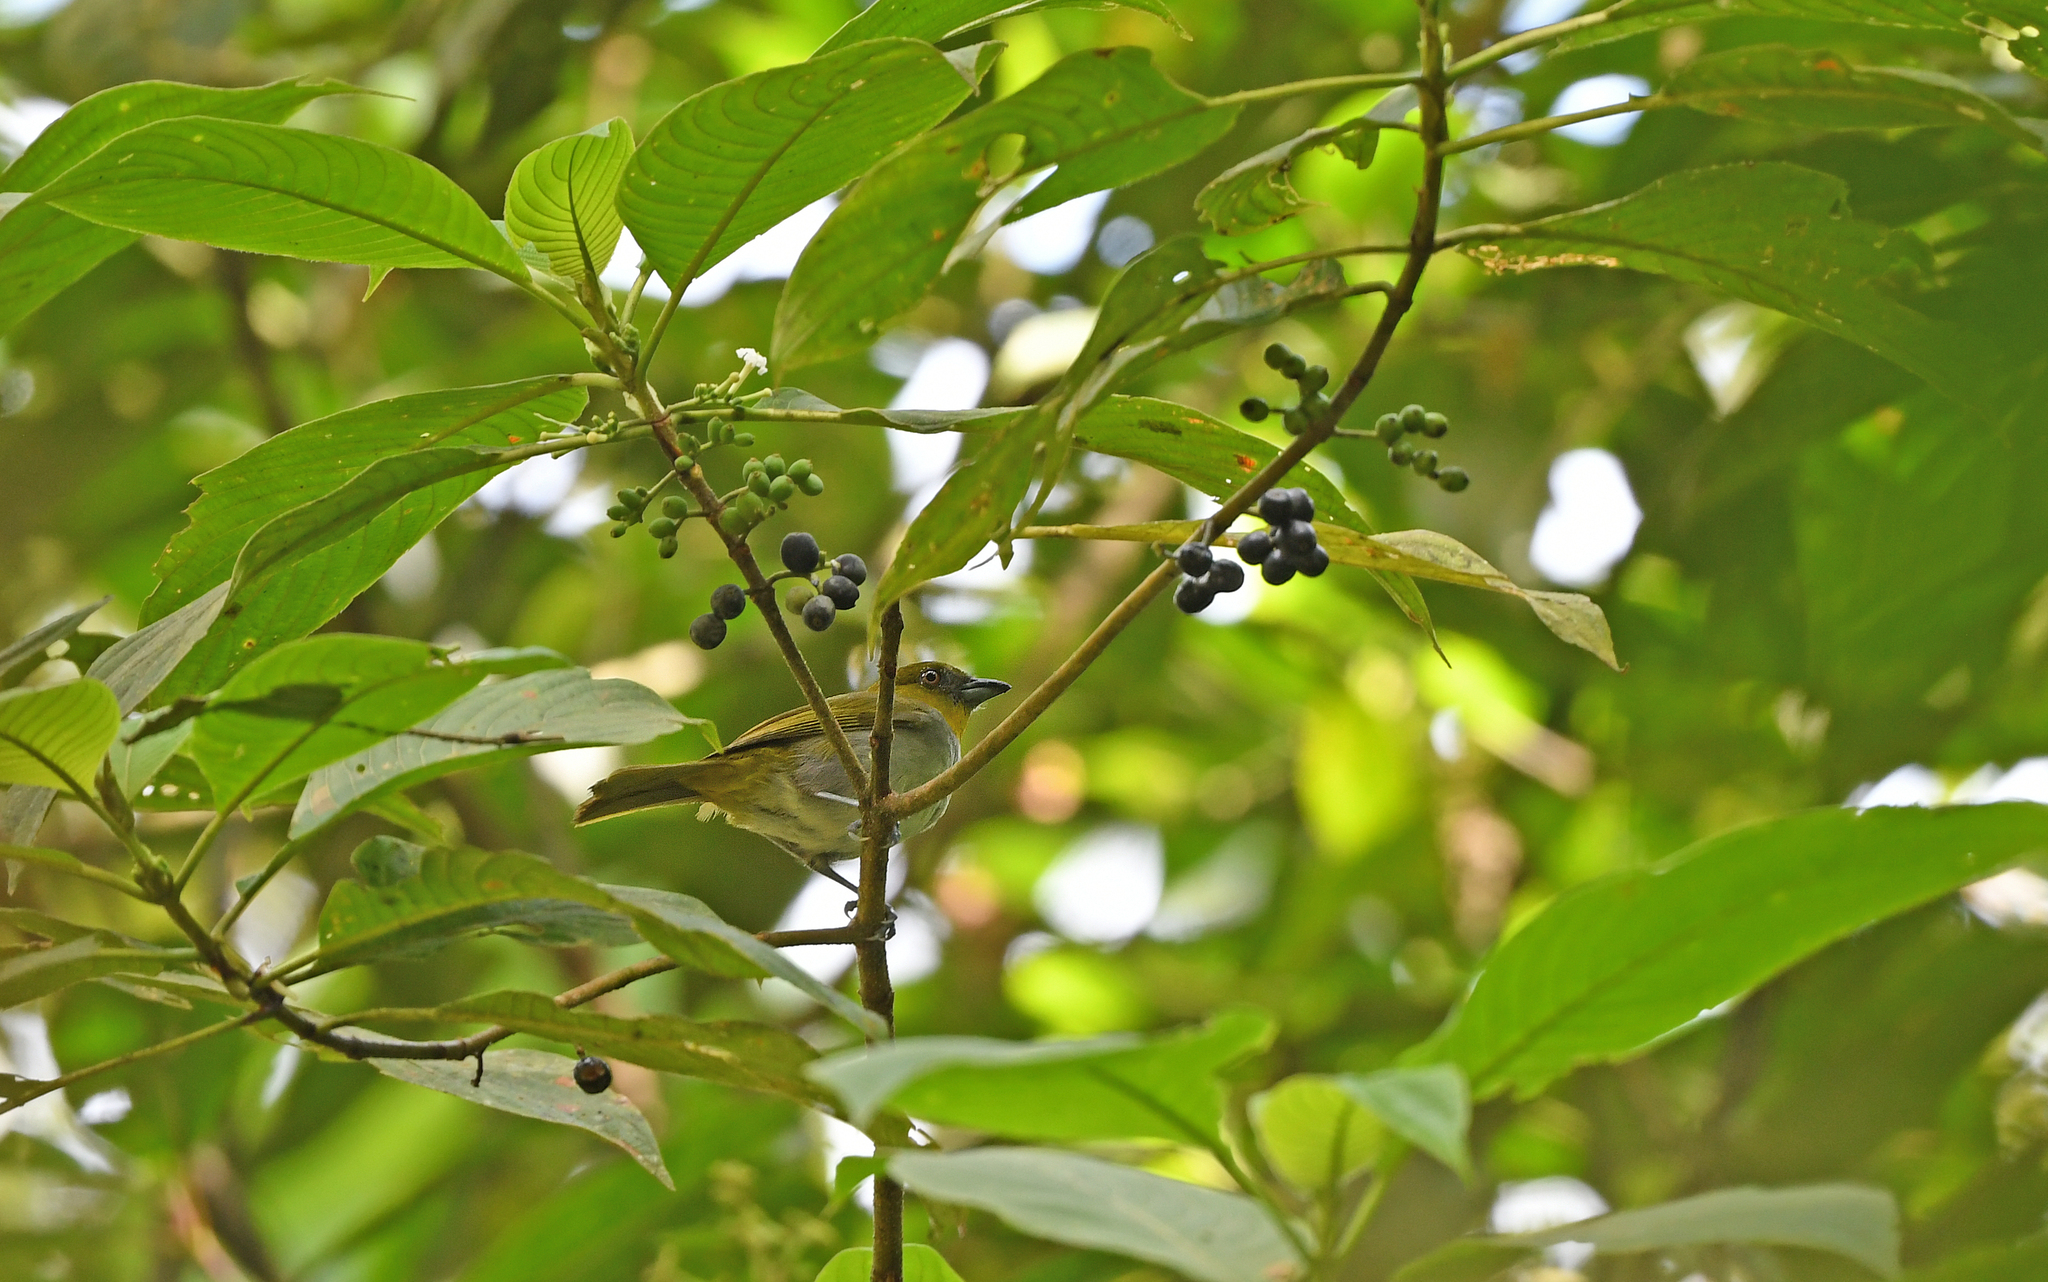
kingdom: Animalia
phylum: Chordata
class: Aves
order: Passeriformes
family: Passerellidae
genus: Chlorospingus
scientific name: Chlorospingus flavigularis
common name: Yellow-throated bush-tanager
